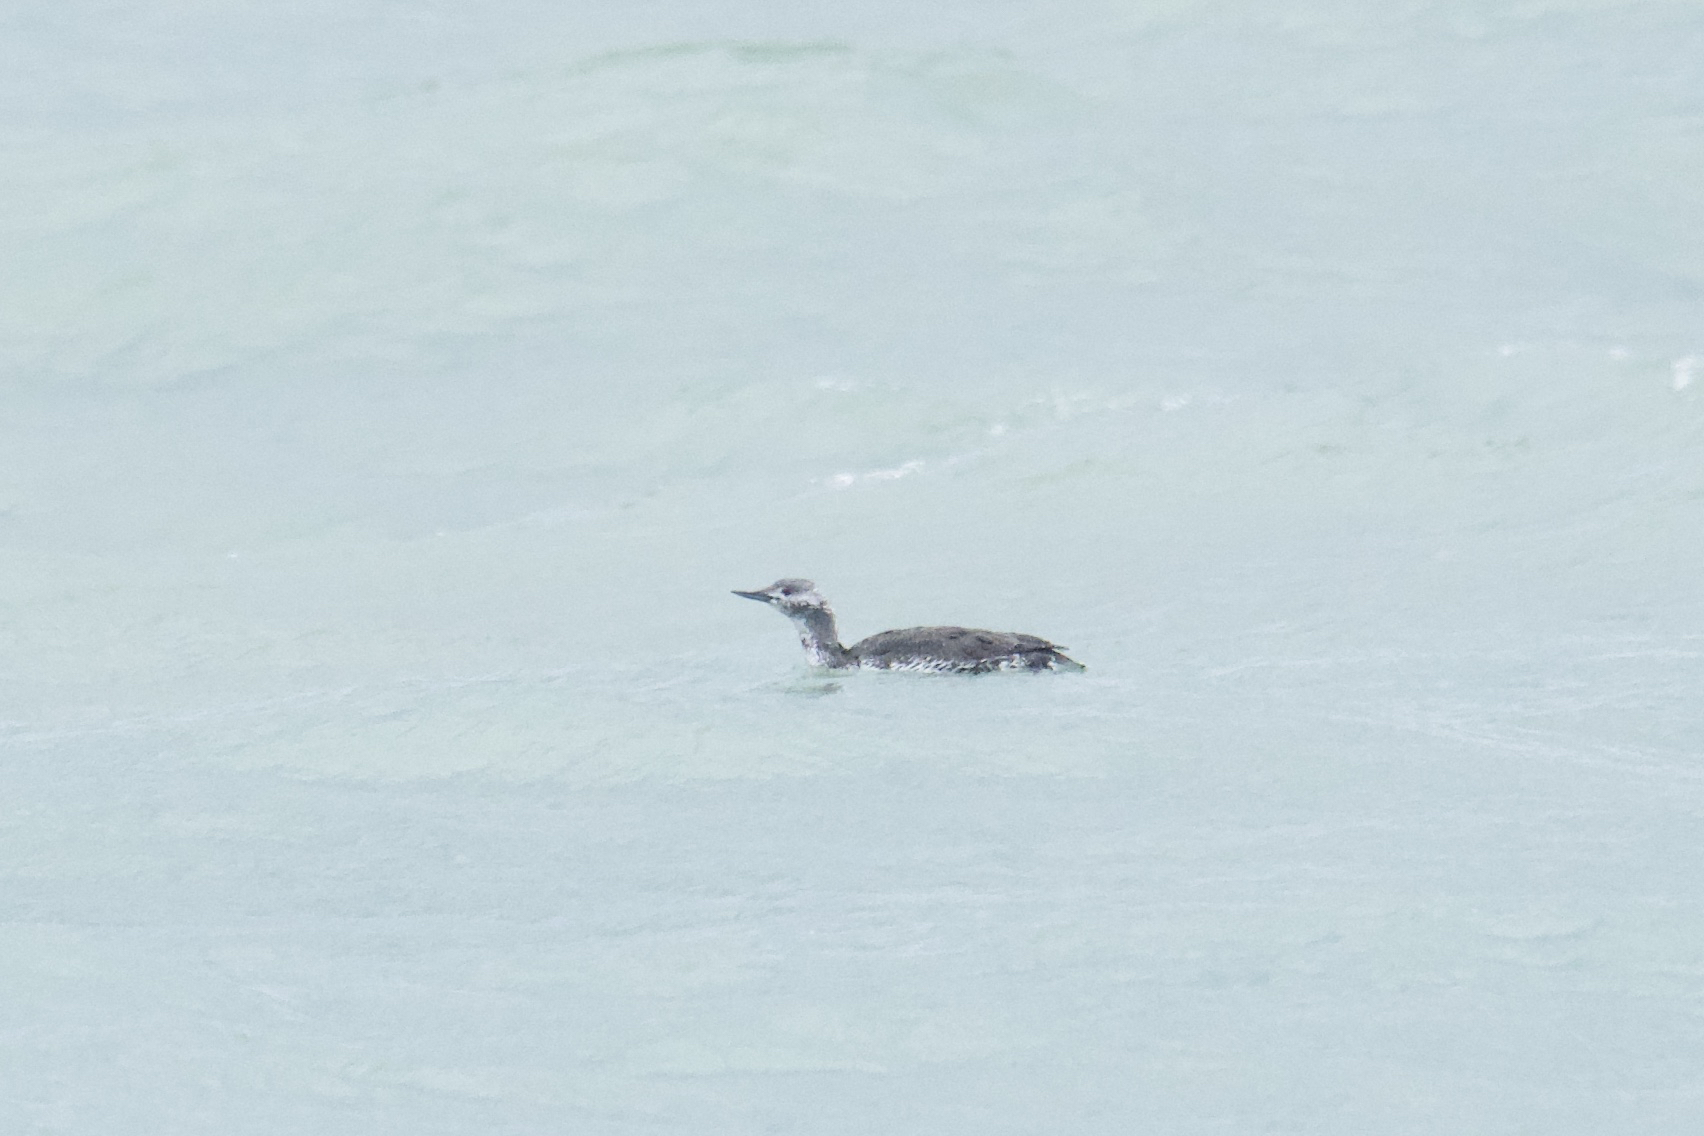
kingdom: Animalia
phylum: Chordata
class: Aves
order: Gaviiformes
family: Gaviidae
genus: Gavia
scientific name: Gavia stellata
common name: Red-throated loon
